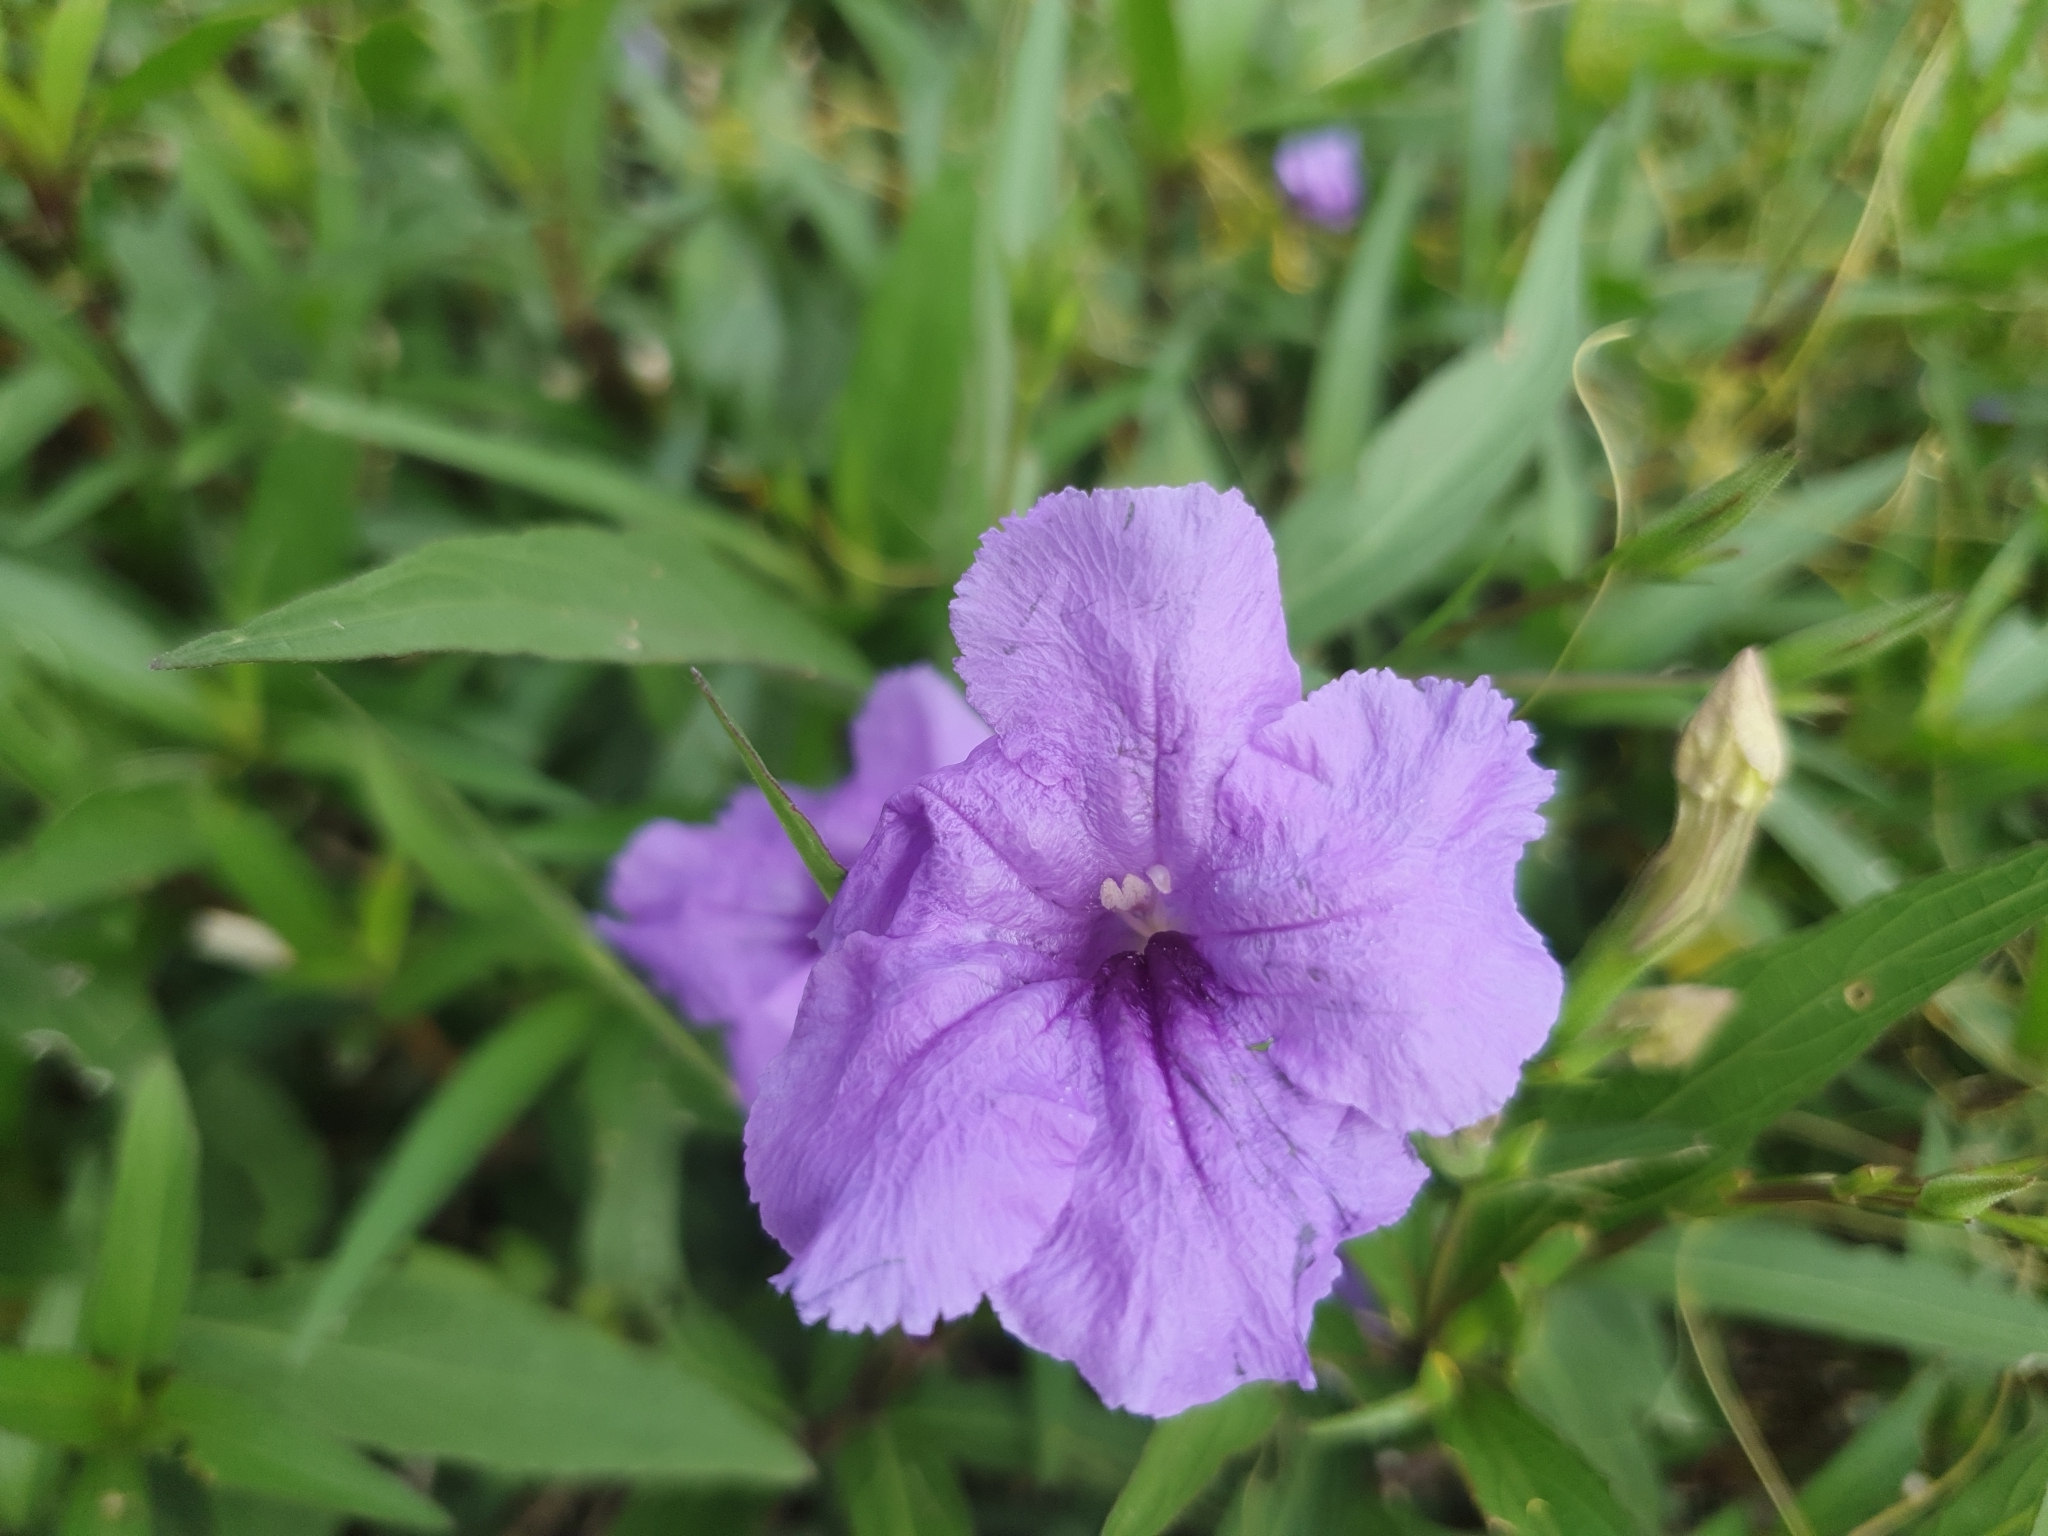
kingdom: Plantae
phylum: Tracheophyta
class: Magnoliopsida
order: Lamiales
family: Acanthaceae
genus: Ruellia
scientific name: Ruellia simplex
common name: Softseed wild petunia
